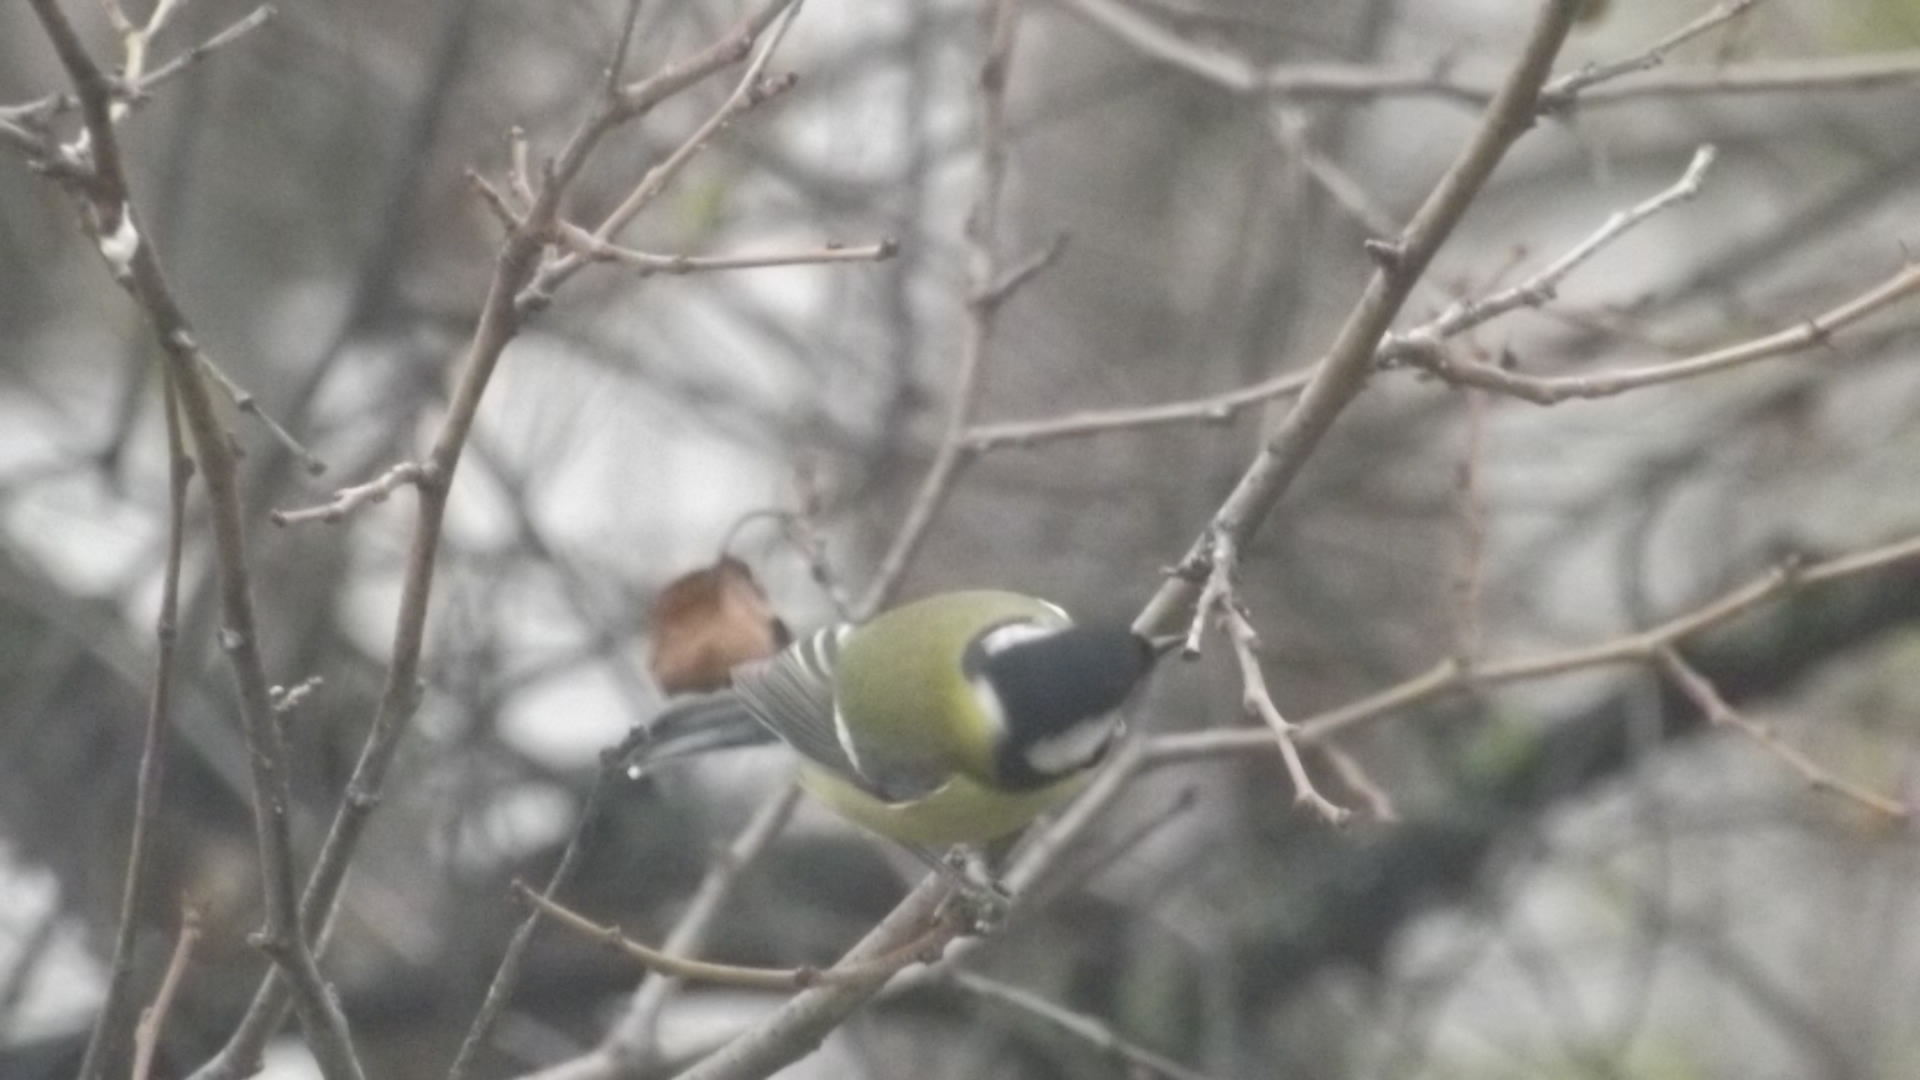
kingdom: Animalia
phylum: Chordata
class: Aves
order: Passeriformes
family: Paridae
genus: Parus
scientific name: Parus major
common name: Great tit
